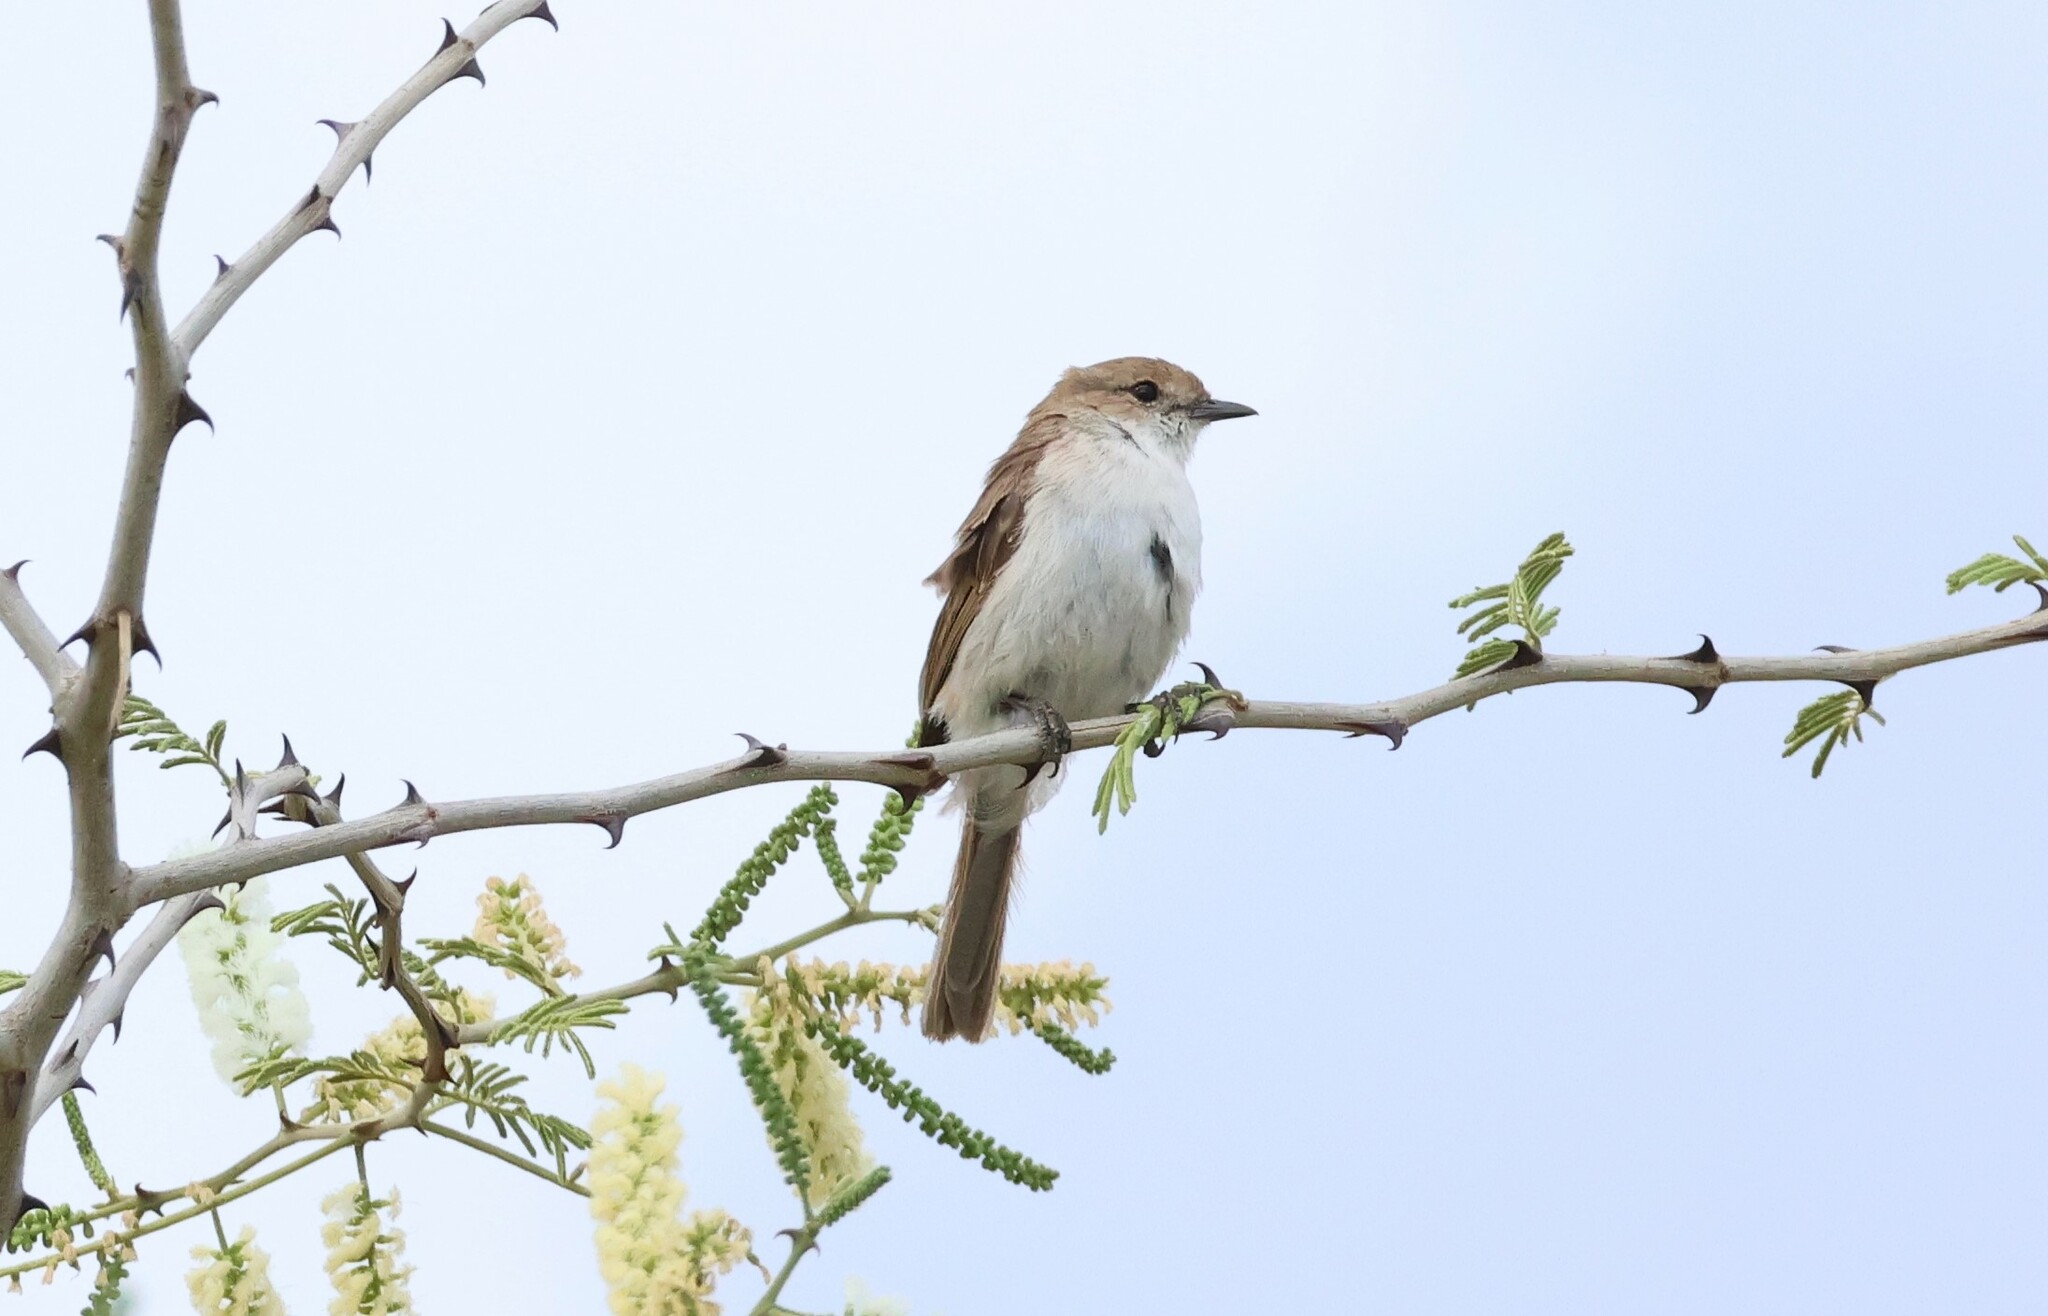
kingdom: Animalia
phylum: Chordata
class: Aves
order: Passeriformes
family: Muscicapidae
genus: Bradornis
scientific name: Bradornis mariquensis
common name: Marico flycatcher
